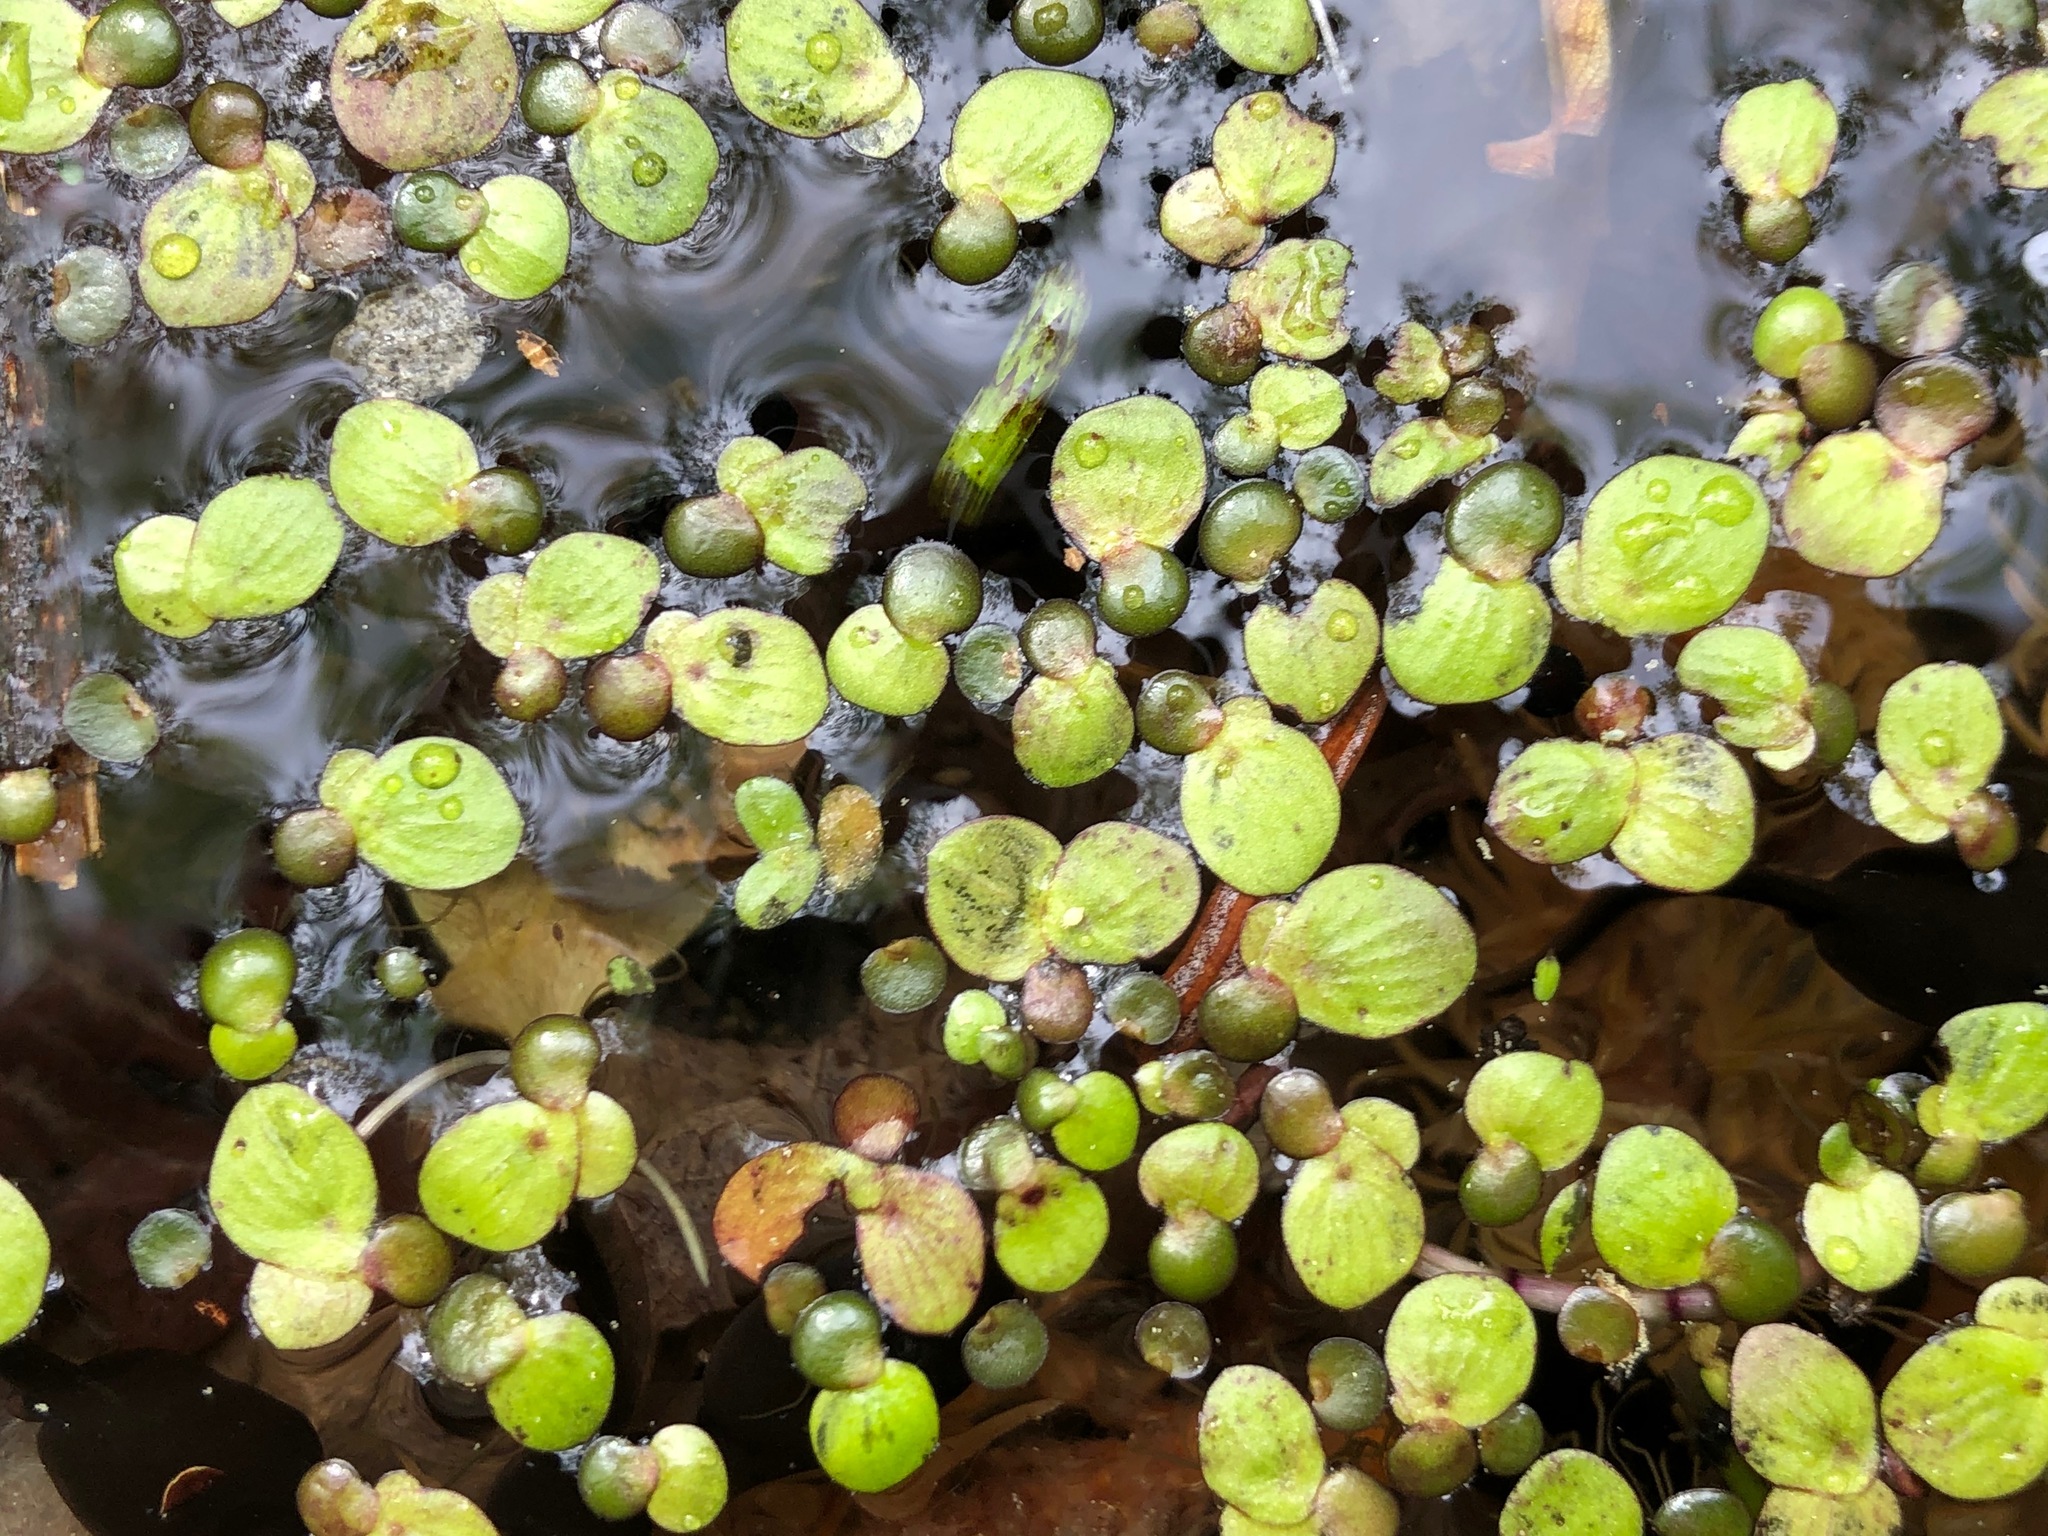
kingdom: Plantae
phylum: Tracheophyta
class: Liliopsida
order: Alismatales
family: Araceae
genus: Spirodela
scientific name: Spirodela polyrhiza
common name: Great duckweed
